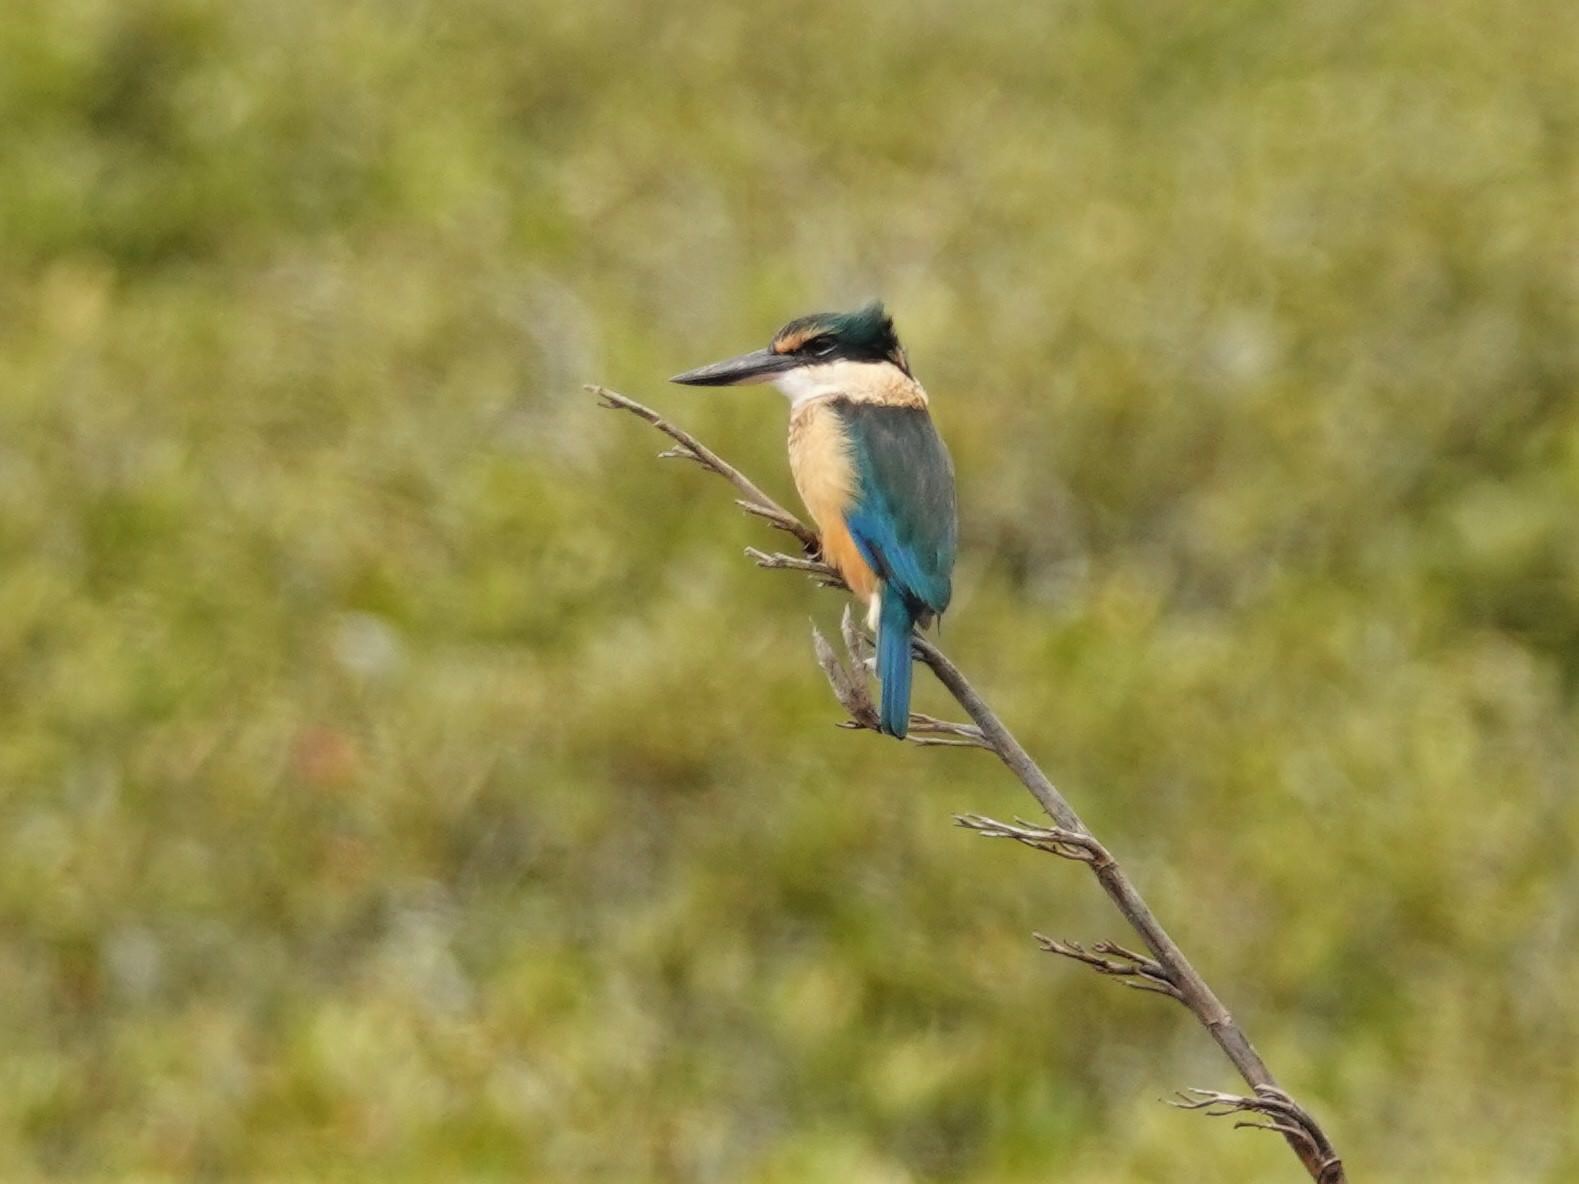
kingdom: Animalia
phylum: Chordata
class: Aves
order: Coraciiformes
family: Alcedinidae
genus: Todiramphus
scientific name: Todiramphus sanctus
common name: Sacred kingfisher
